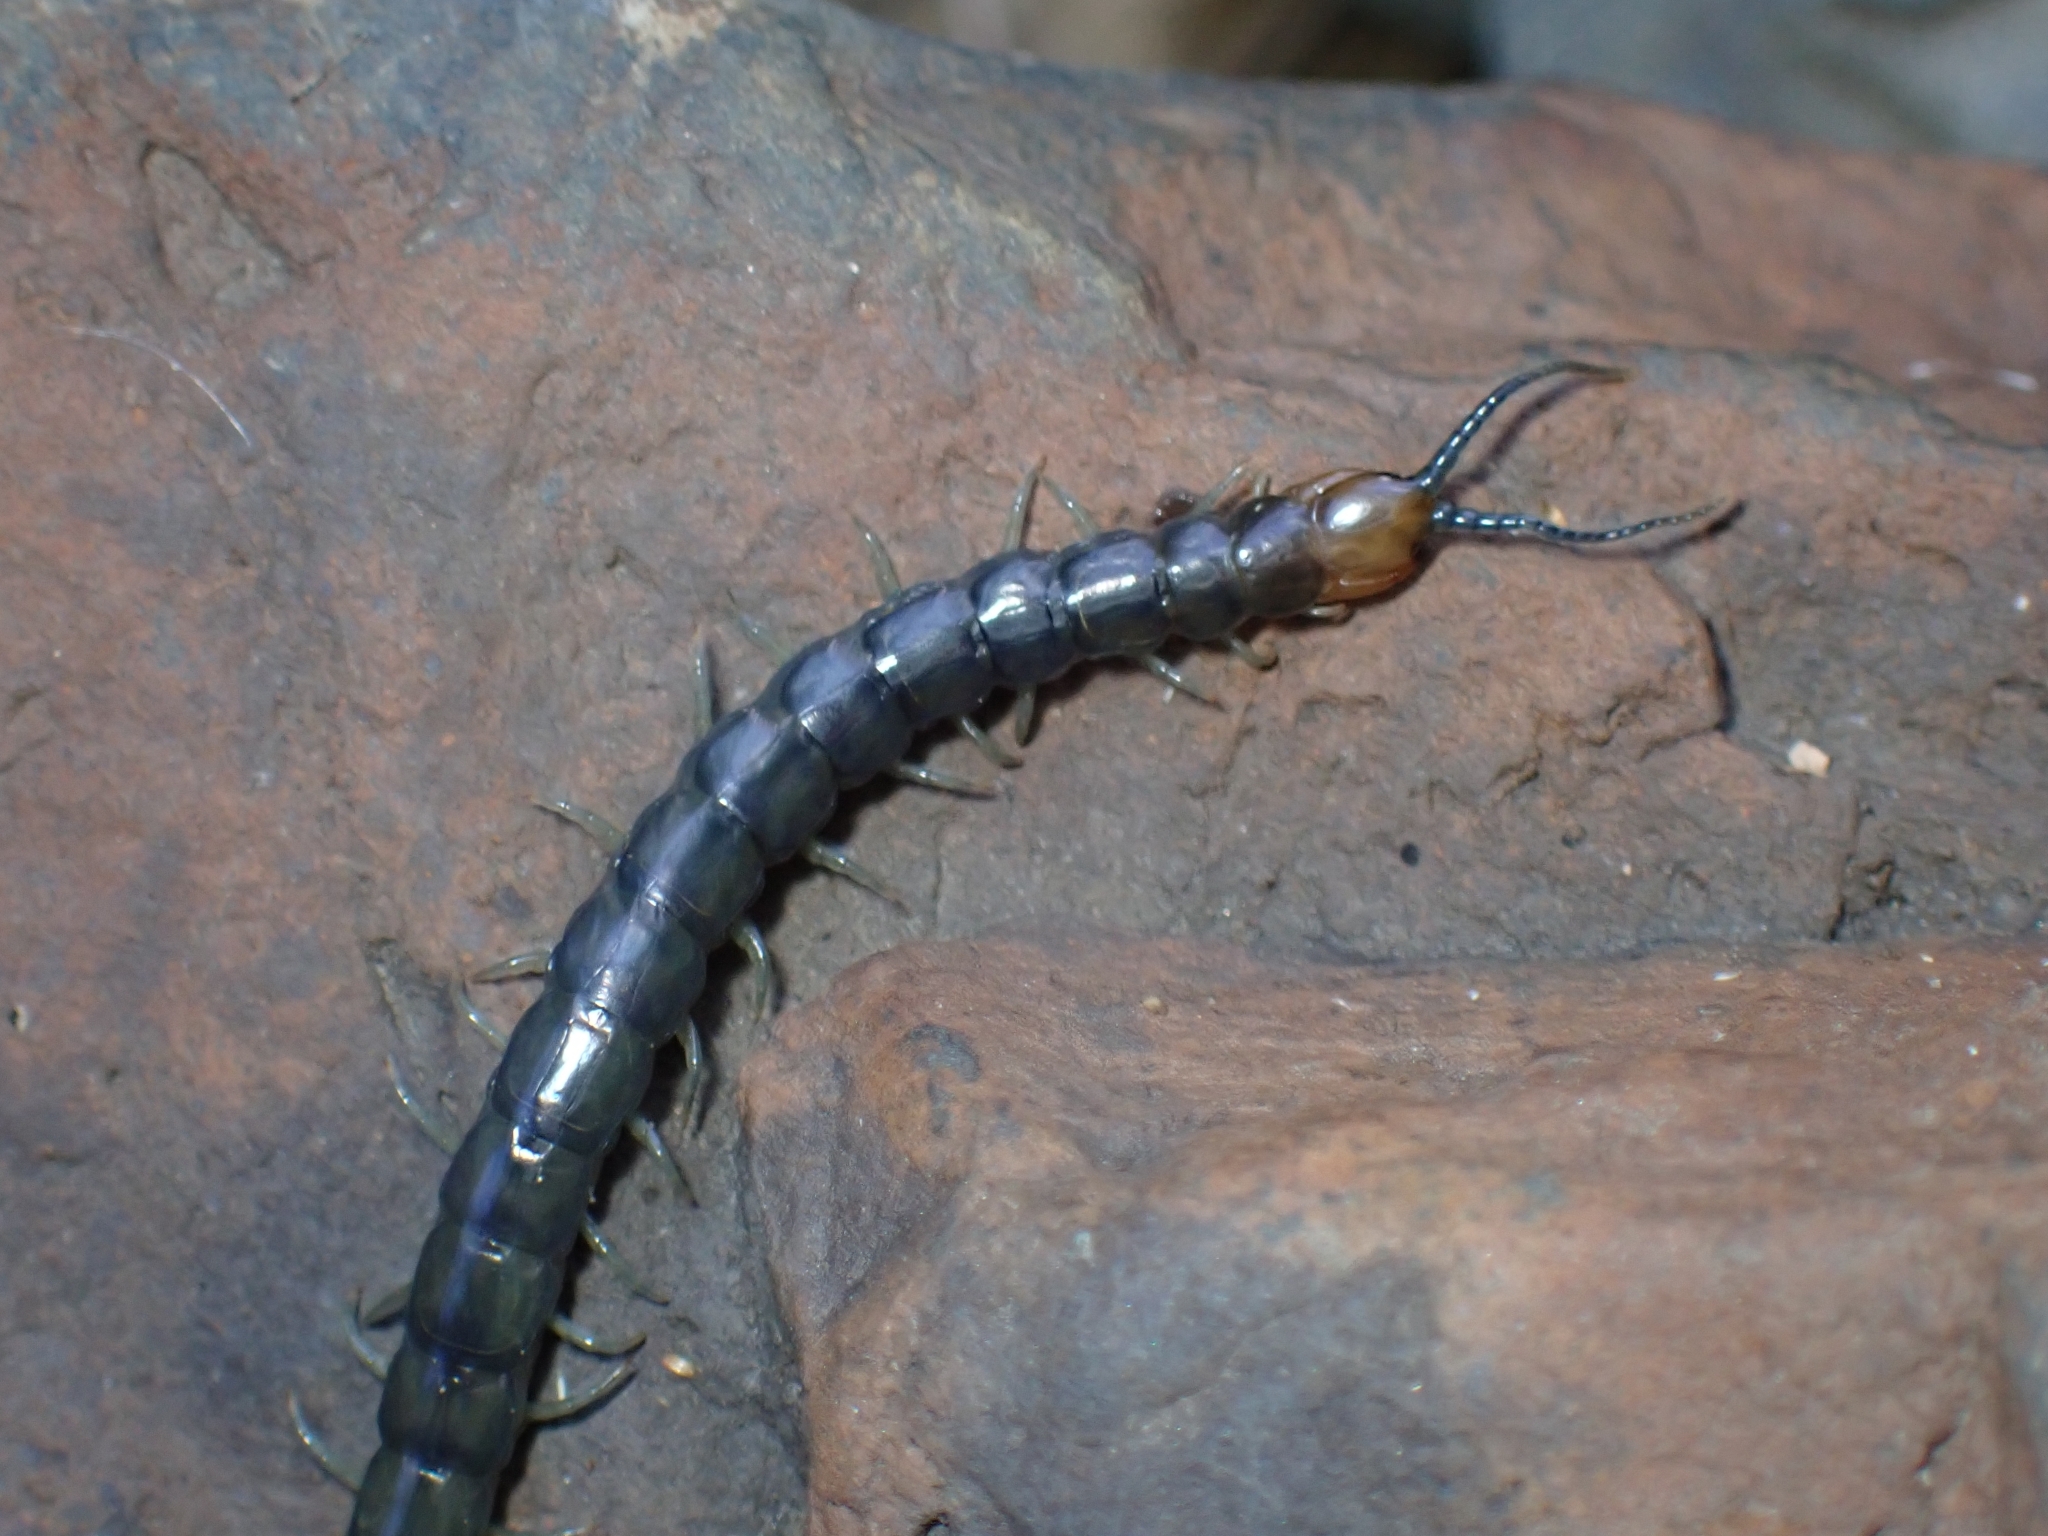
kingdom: Animalia
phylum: Arthropoda
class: Chilopoda
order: Scolopendromorpha
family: Scolopendridae
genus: Cormocephalus
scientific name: Cormocephalus westwoodi
